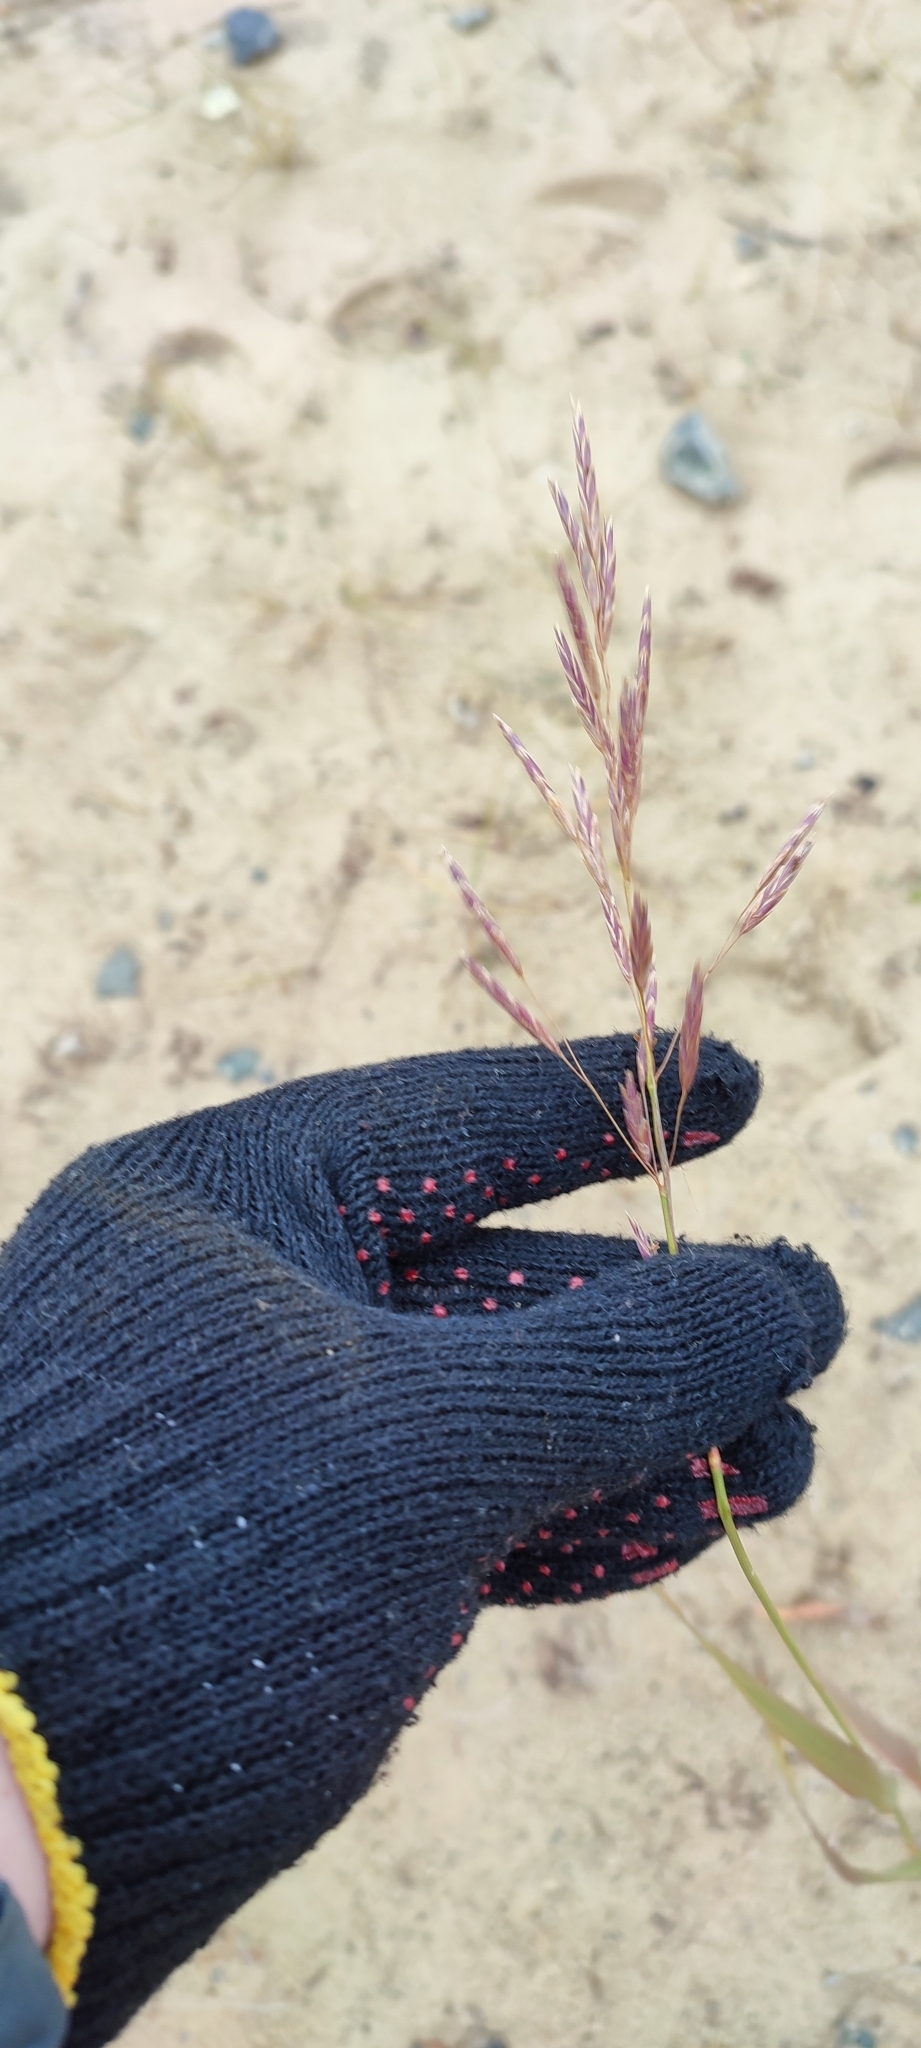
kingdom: Plantae
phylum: Tracheophyta
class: Liliopsida
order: Poales
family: Poaceae
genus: Bromus
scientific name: Bromus inermis
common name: Smooth brome
